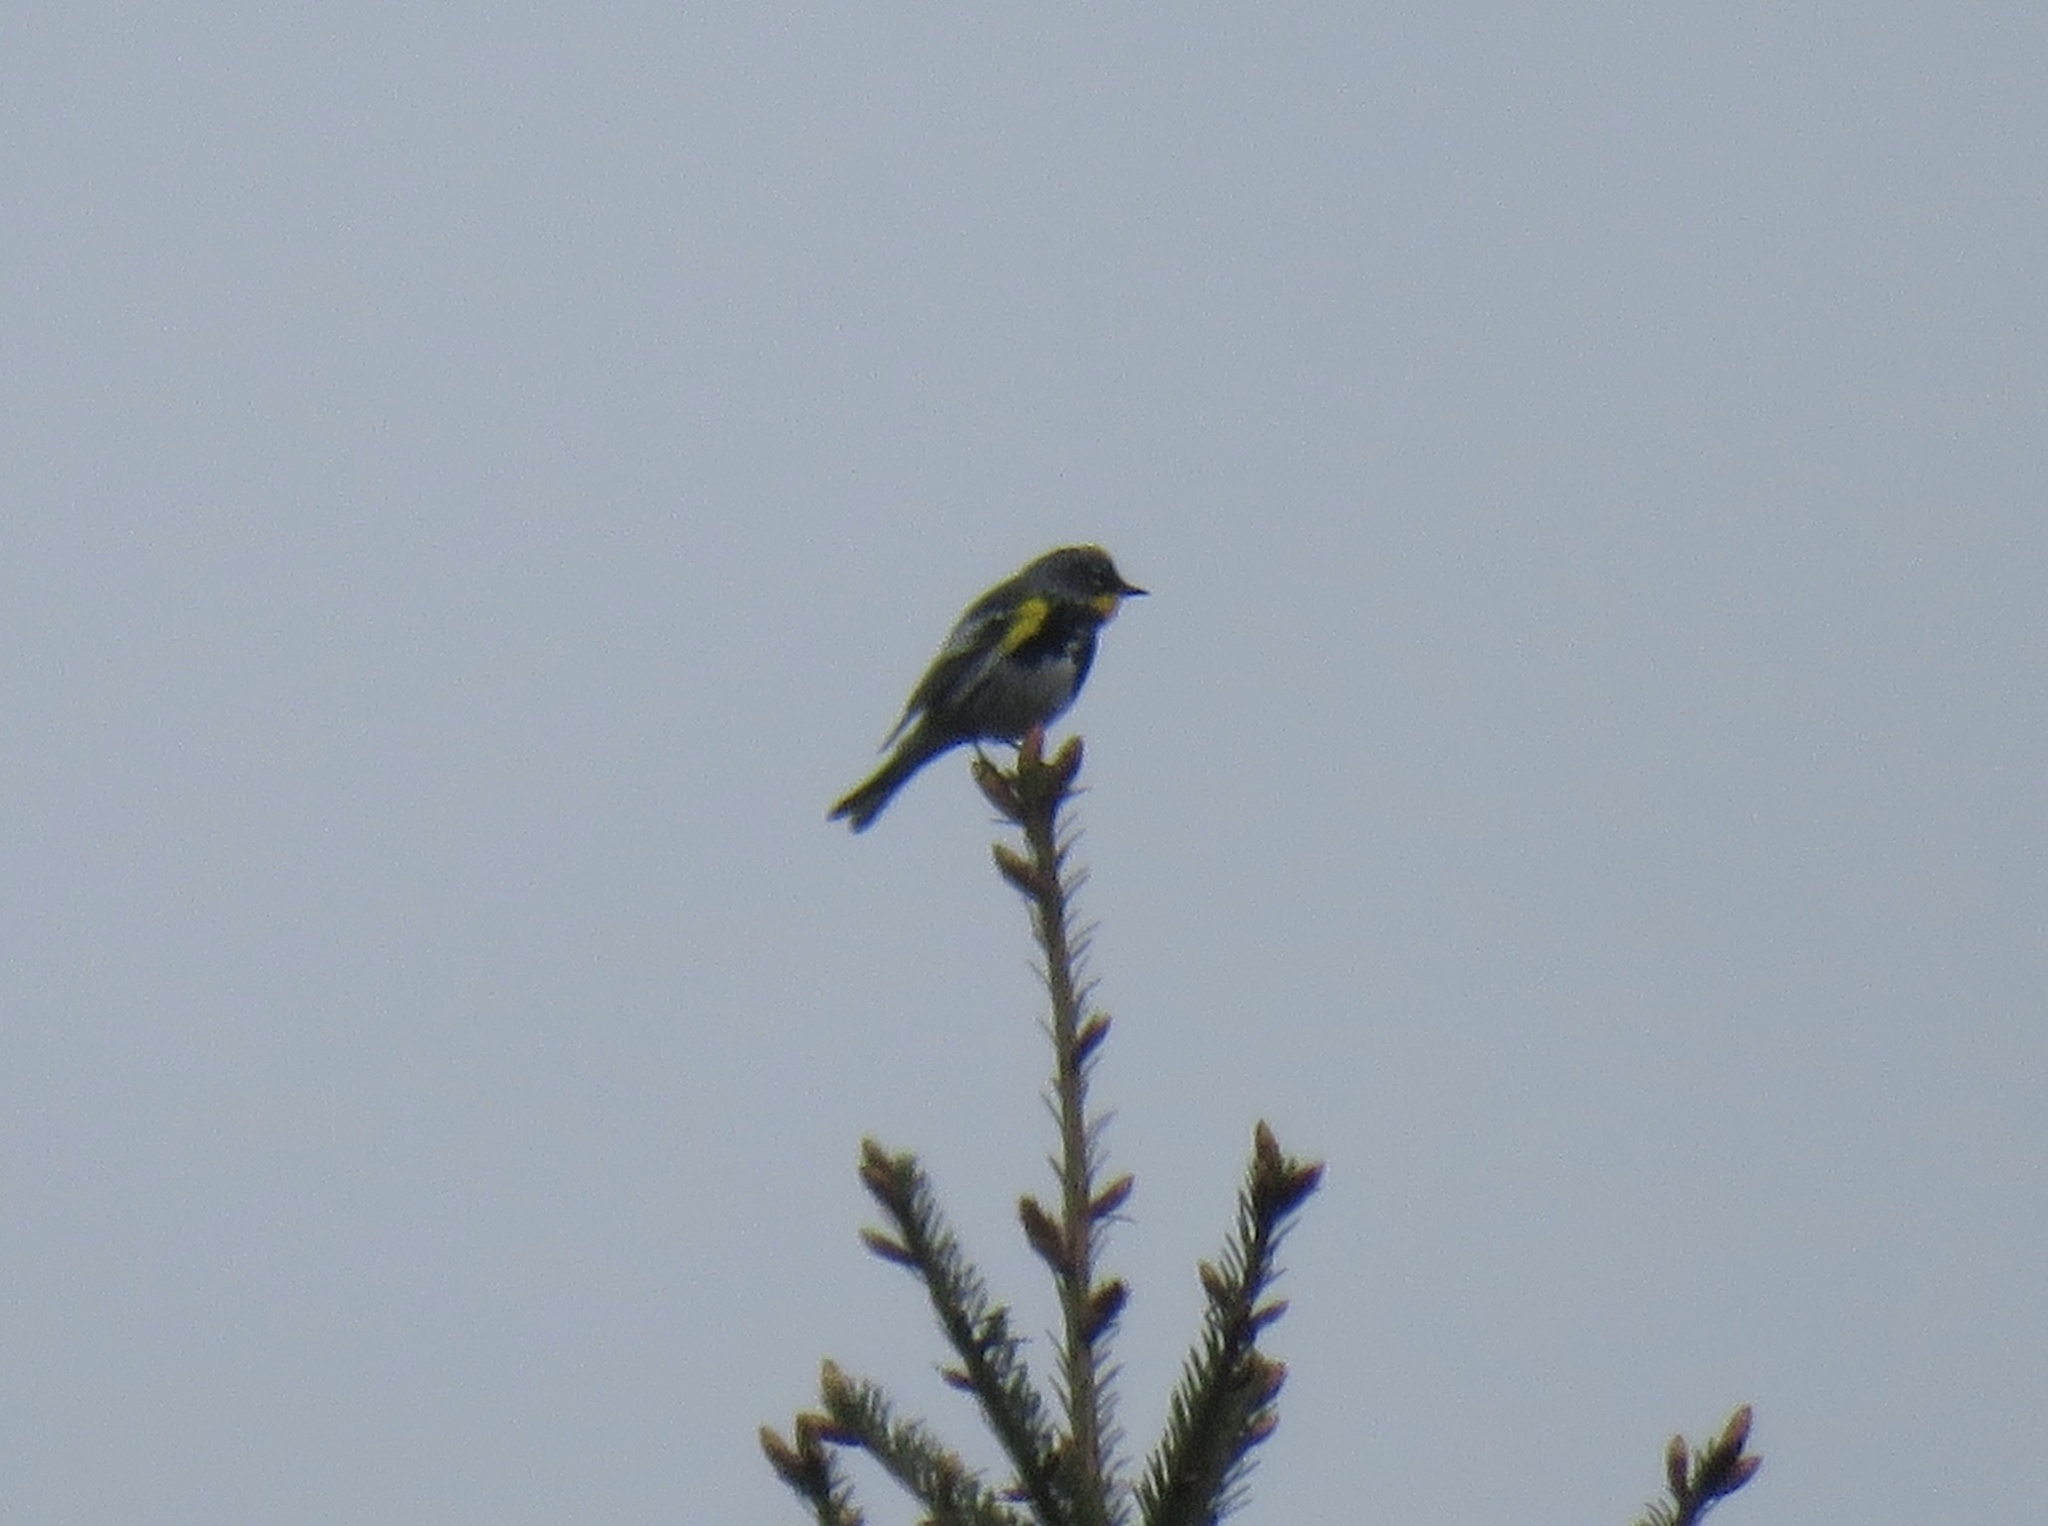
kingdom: Animalia
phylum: Chordata
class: Aves
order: Passeriformes
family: Parulidae
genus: Setophaga
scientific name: Setophaga auduboni
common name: Audubon's warbler
